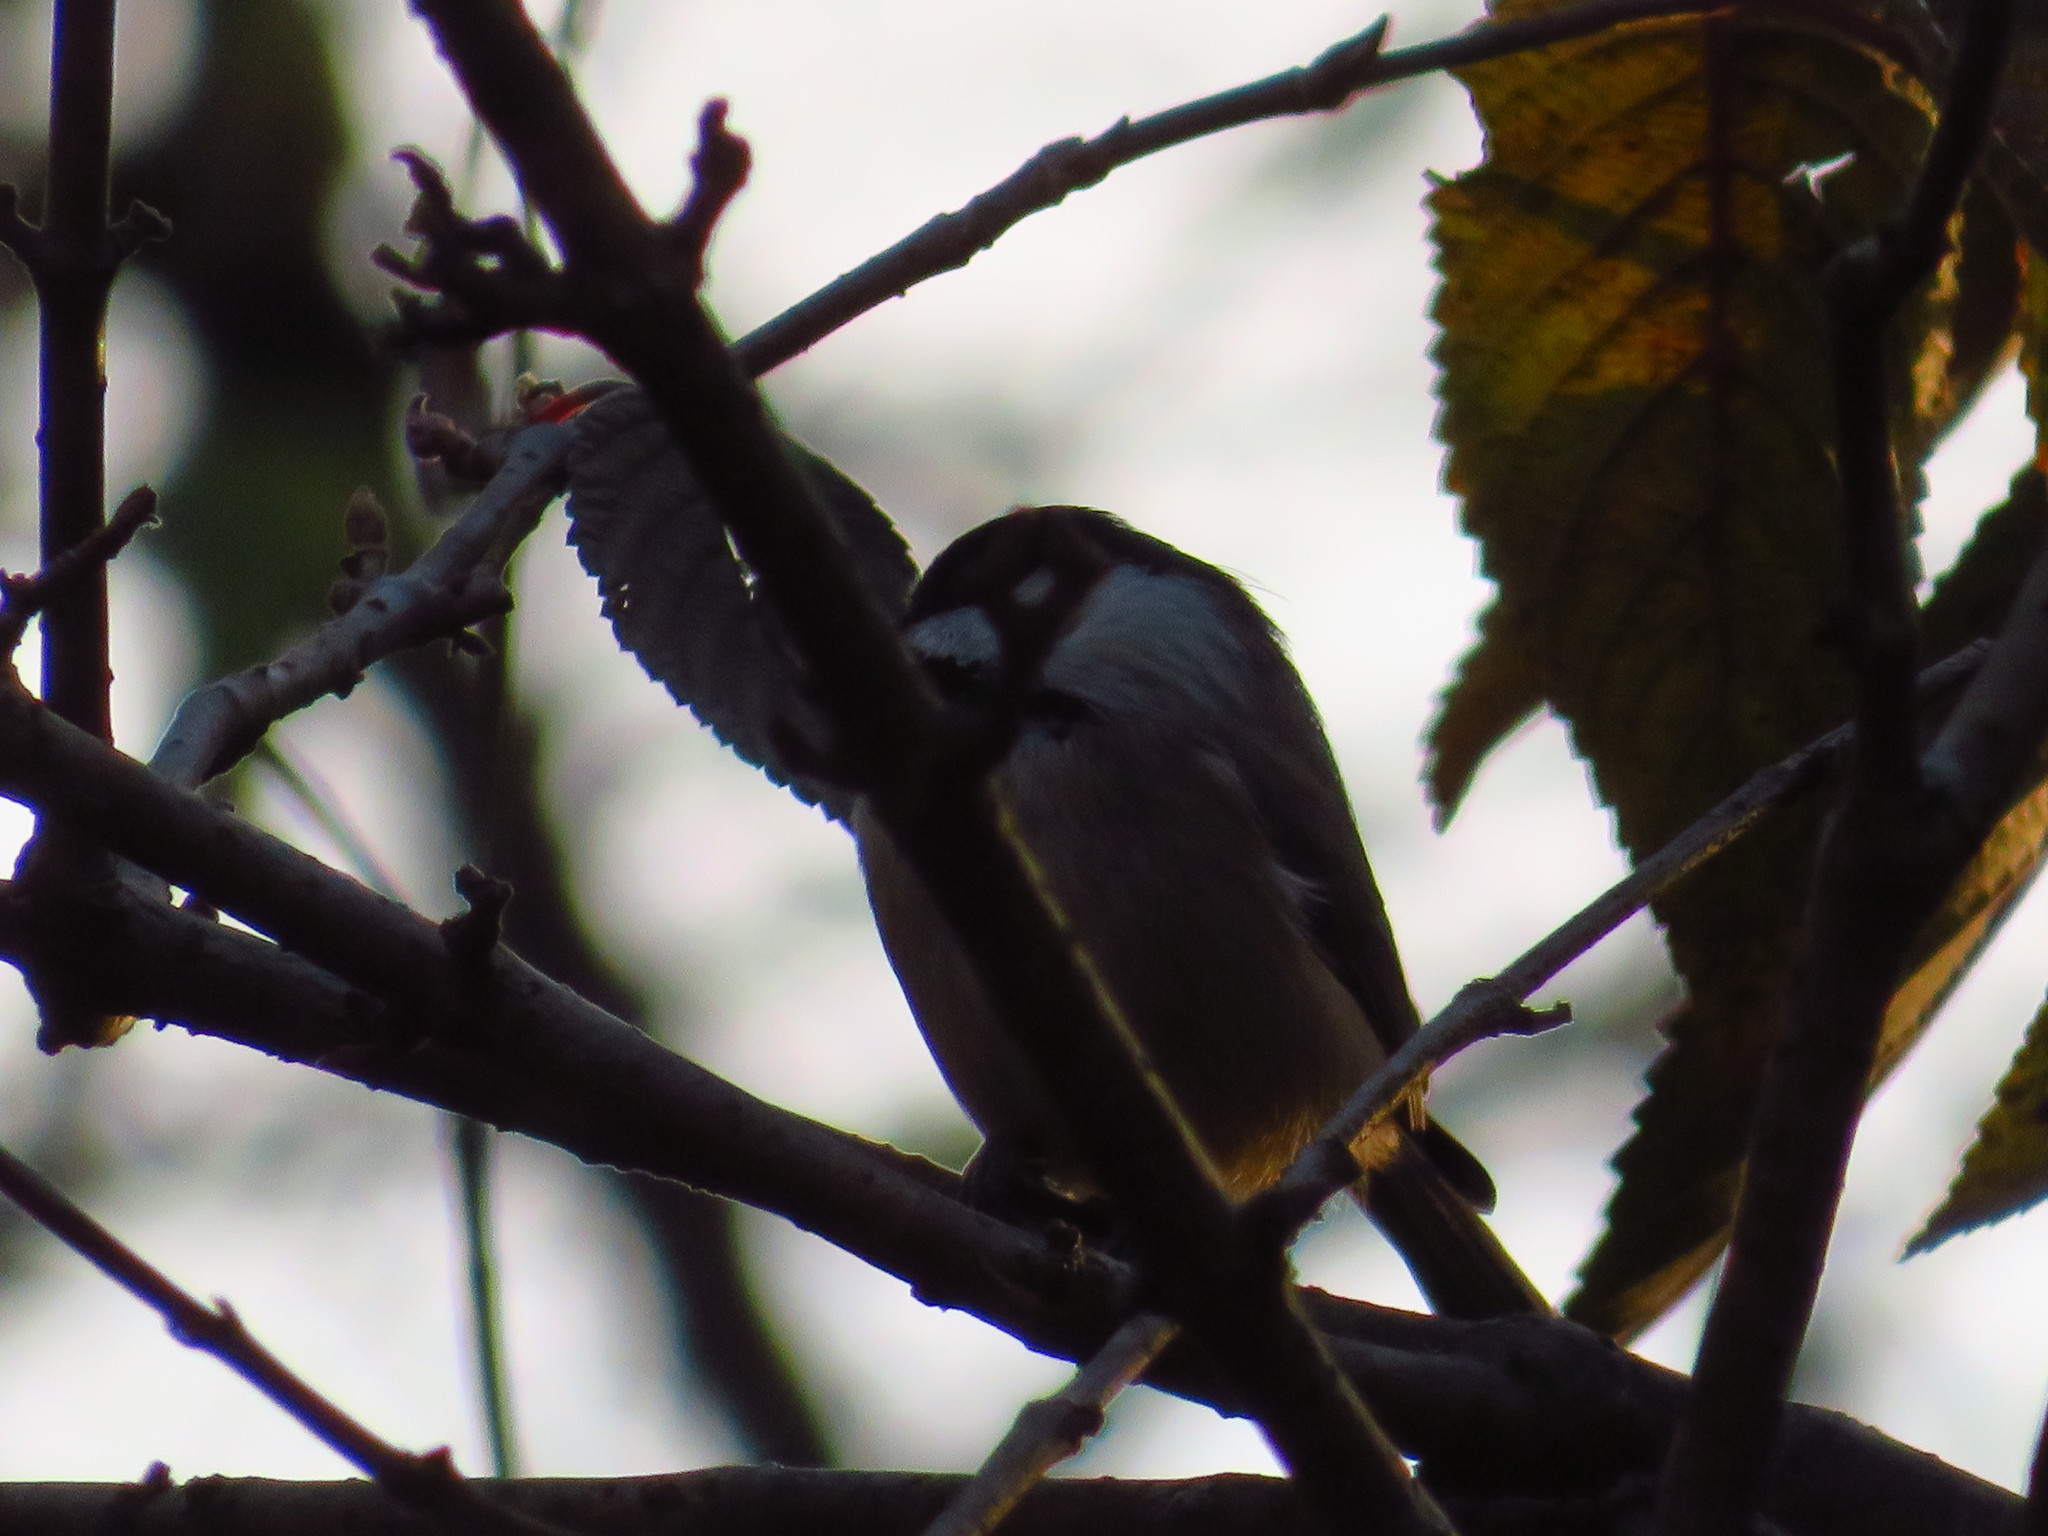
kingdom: Animalia
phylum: Chordata
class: Aves
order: Passeriformes
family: Paridae
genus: Poecile
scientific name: Poecile carolinensis
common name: Carolina chickadee
